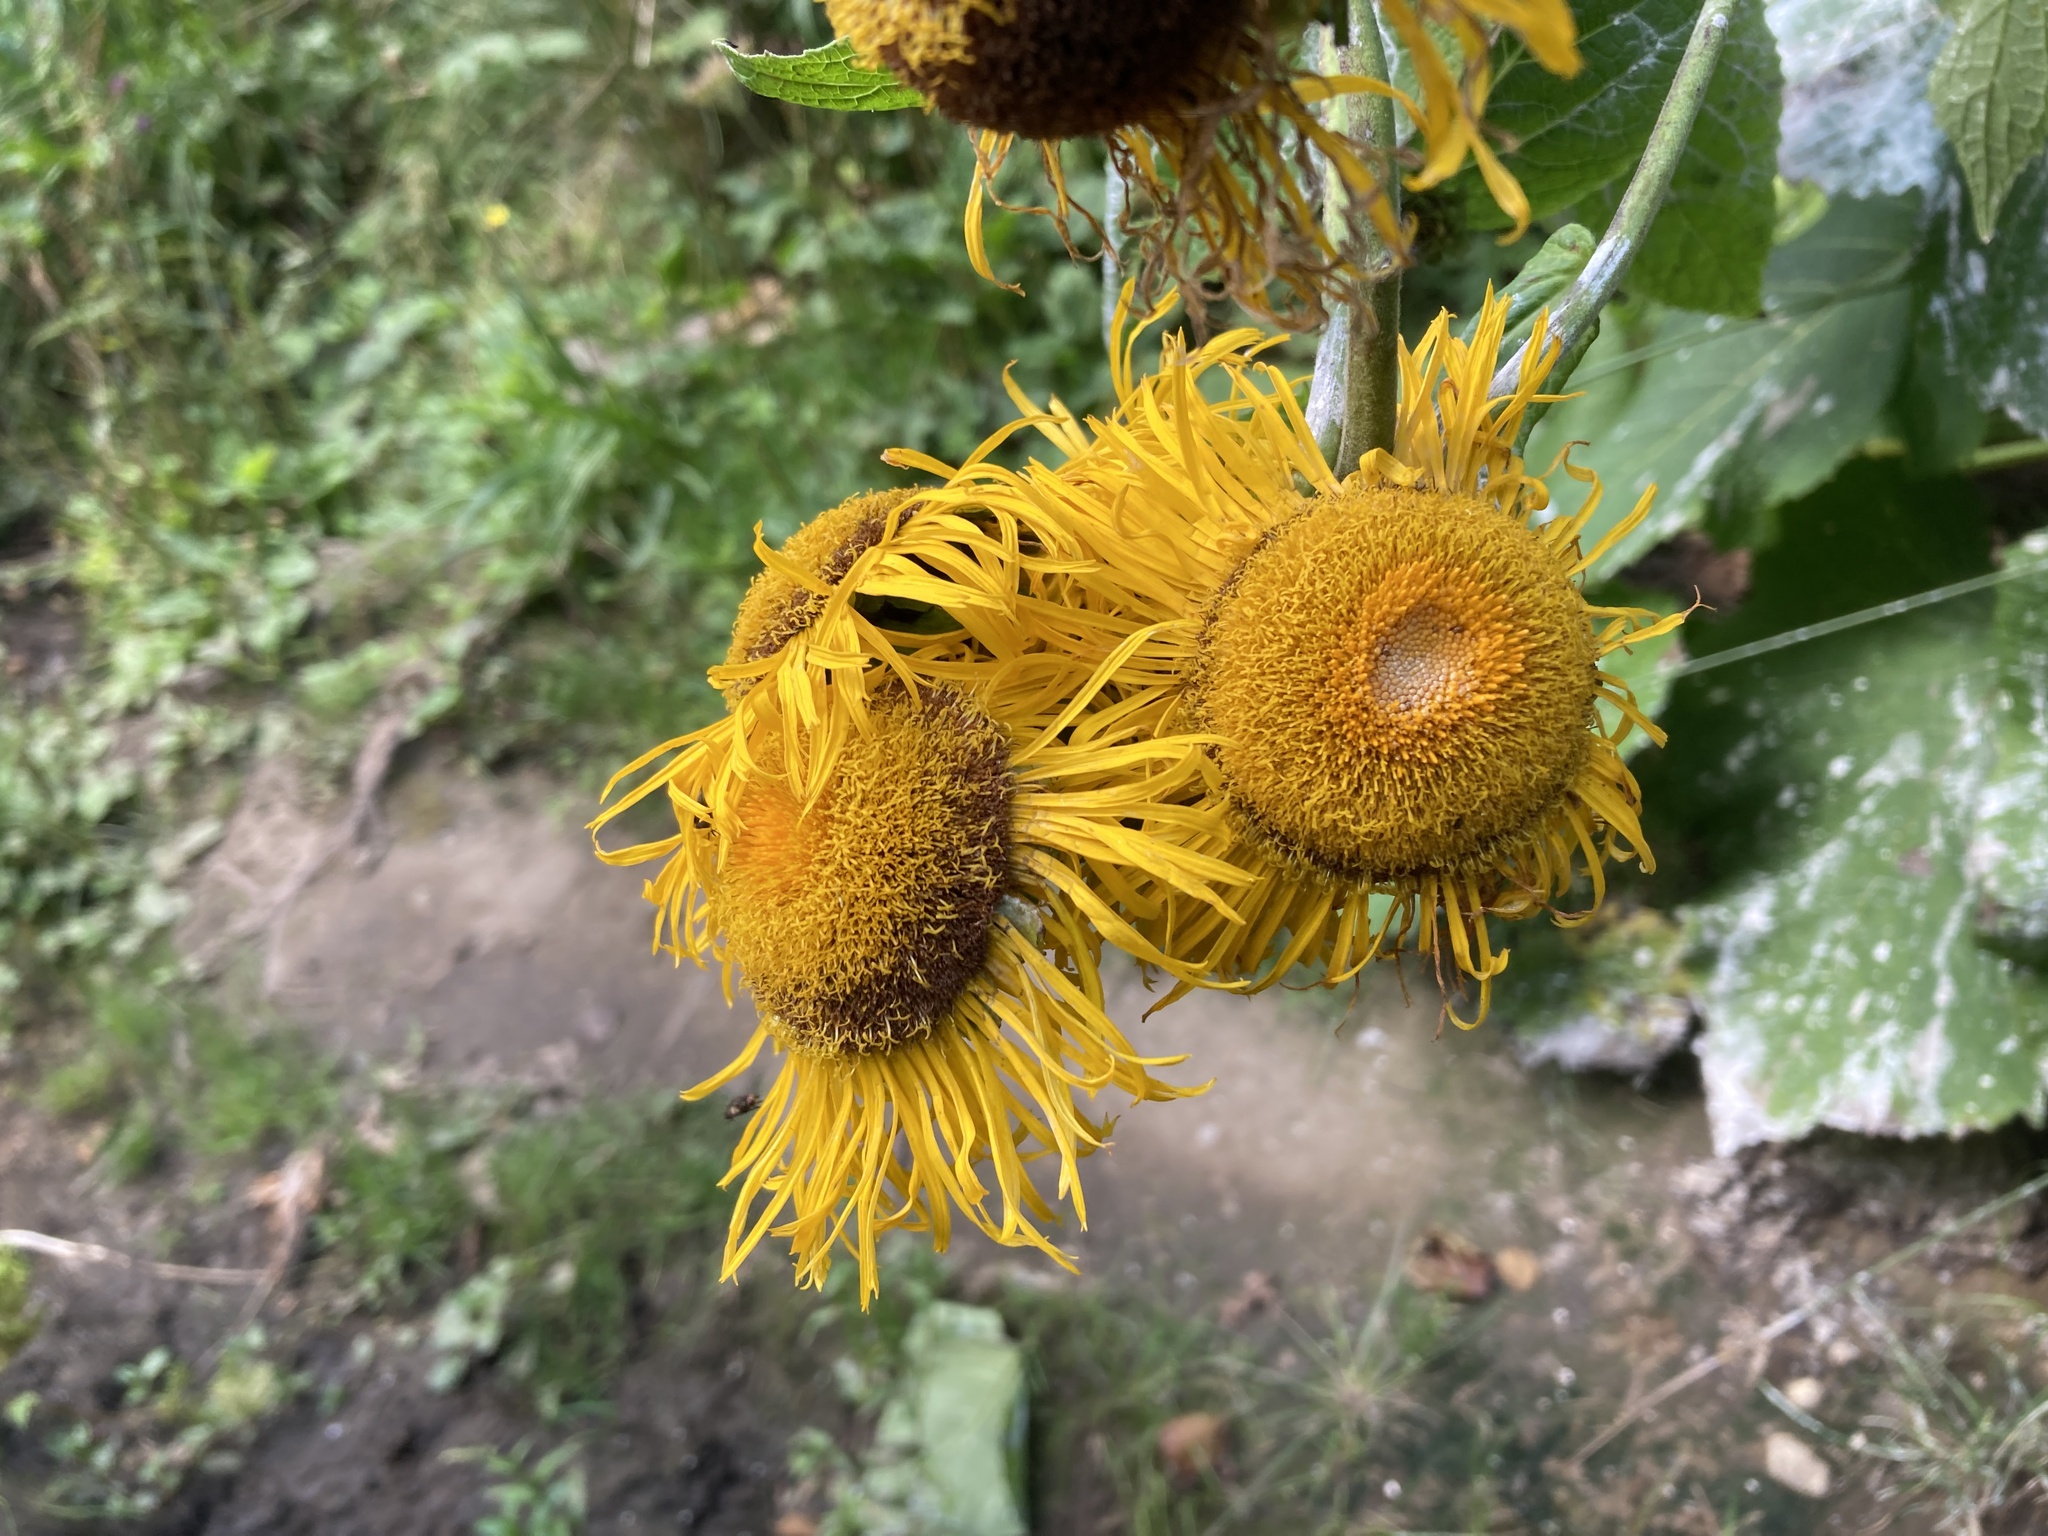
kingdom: Plantae
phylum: Tracheophyta
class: Magnoliopsida
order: Asterales
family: Asteraceae
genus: Telekia
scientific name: Telekia speciosa
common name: Yellow oxeye
